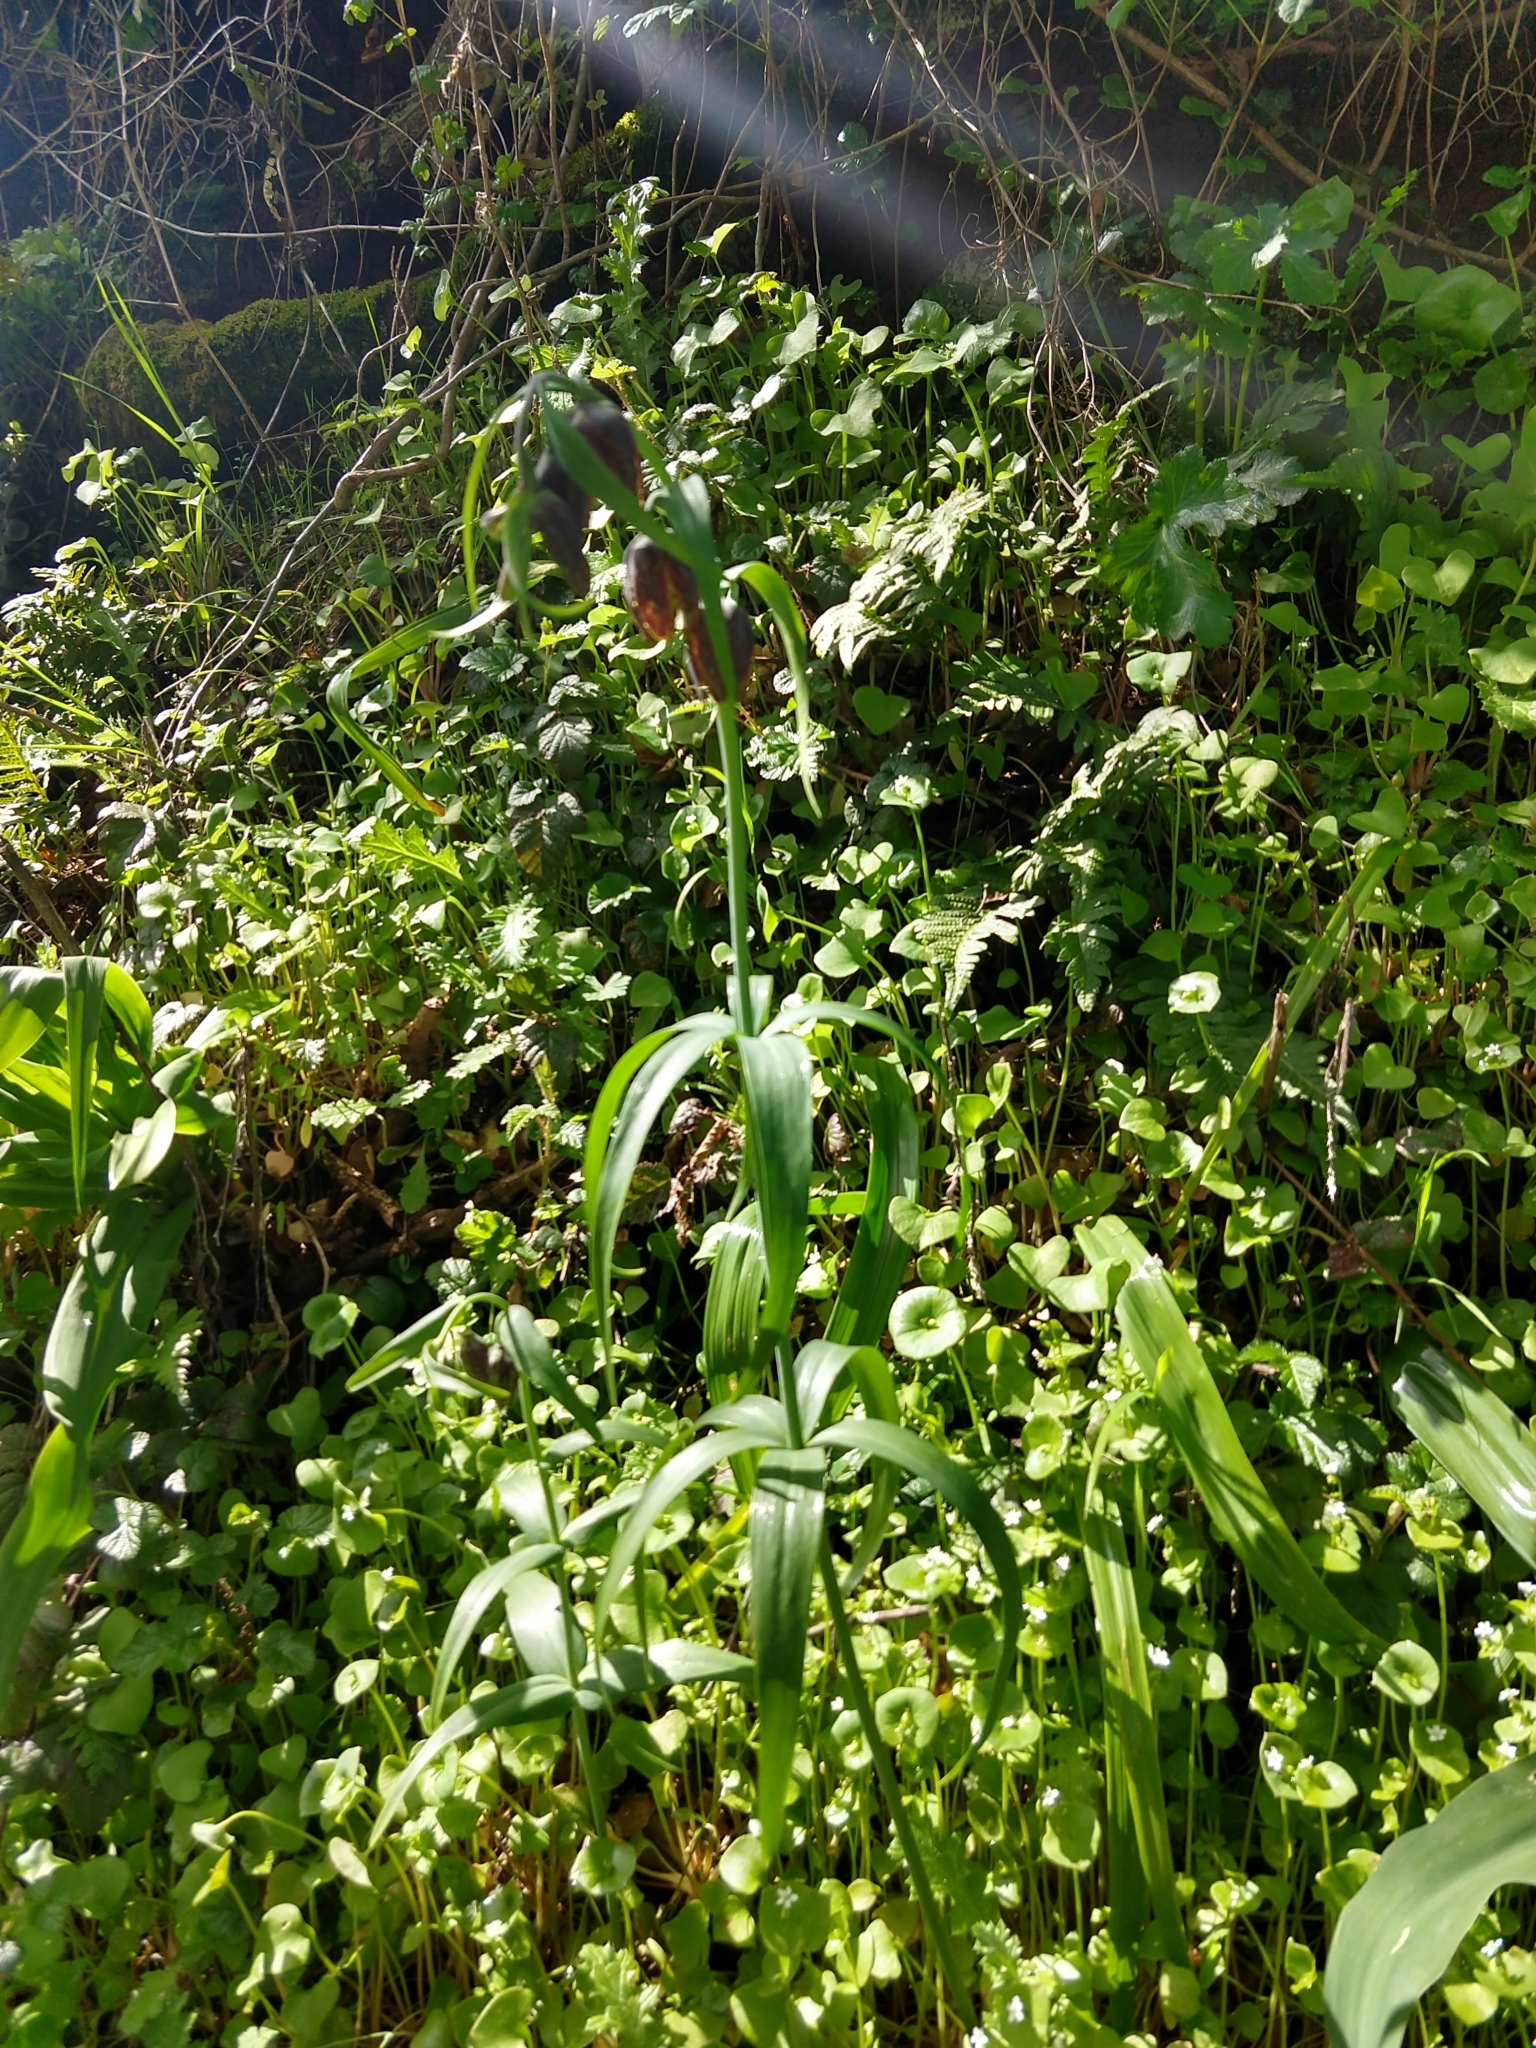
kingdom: Plantae
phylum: Tracheophyta
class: Liliopsida
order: Liliales
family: Liliaceae
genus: Fritillaria
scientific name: Fritillaria affinis
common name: Ojai fritillary
